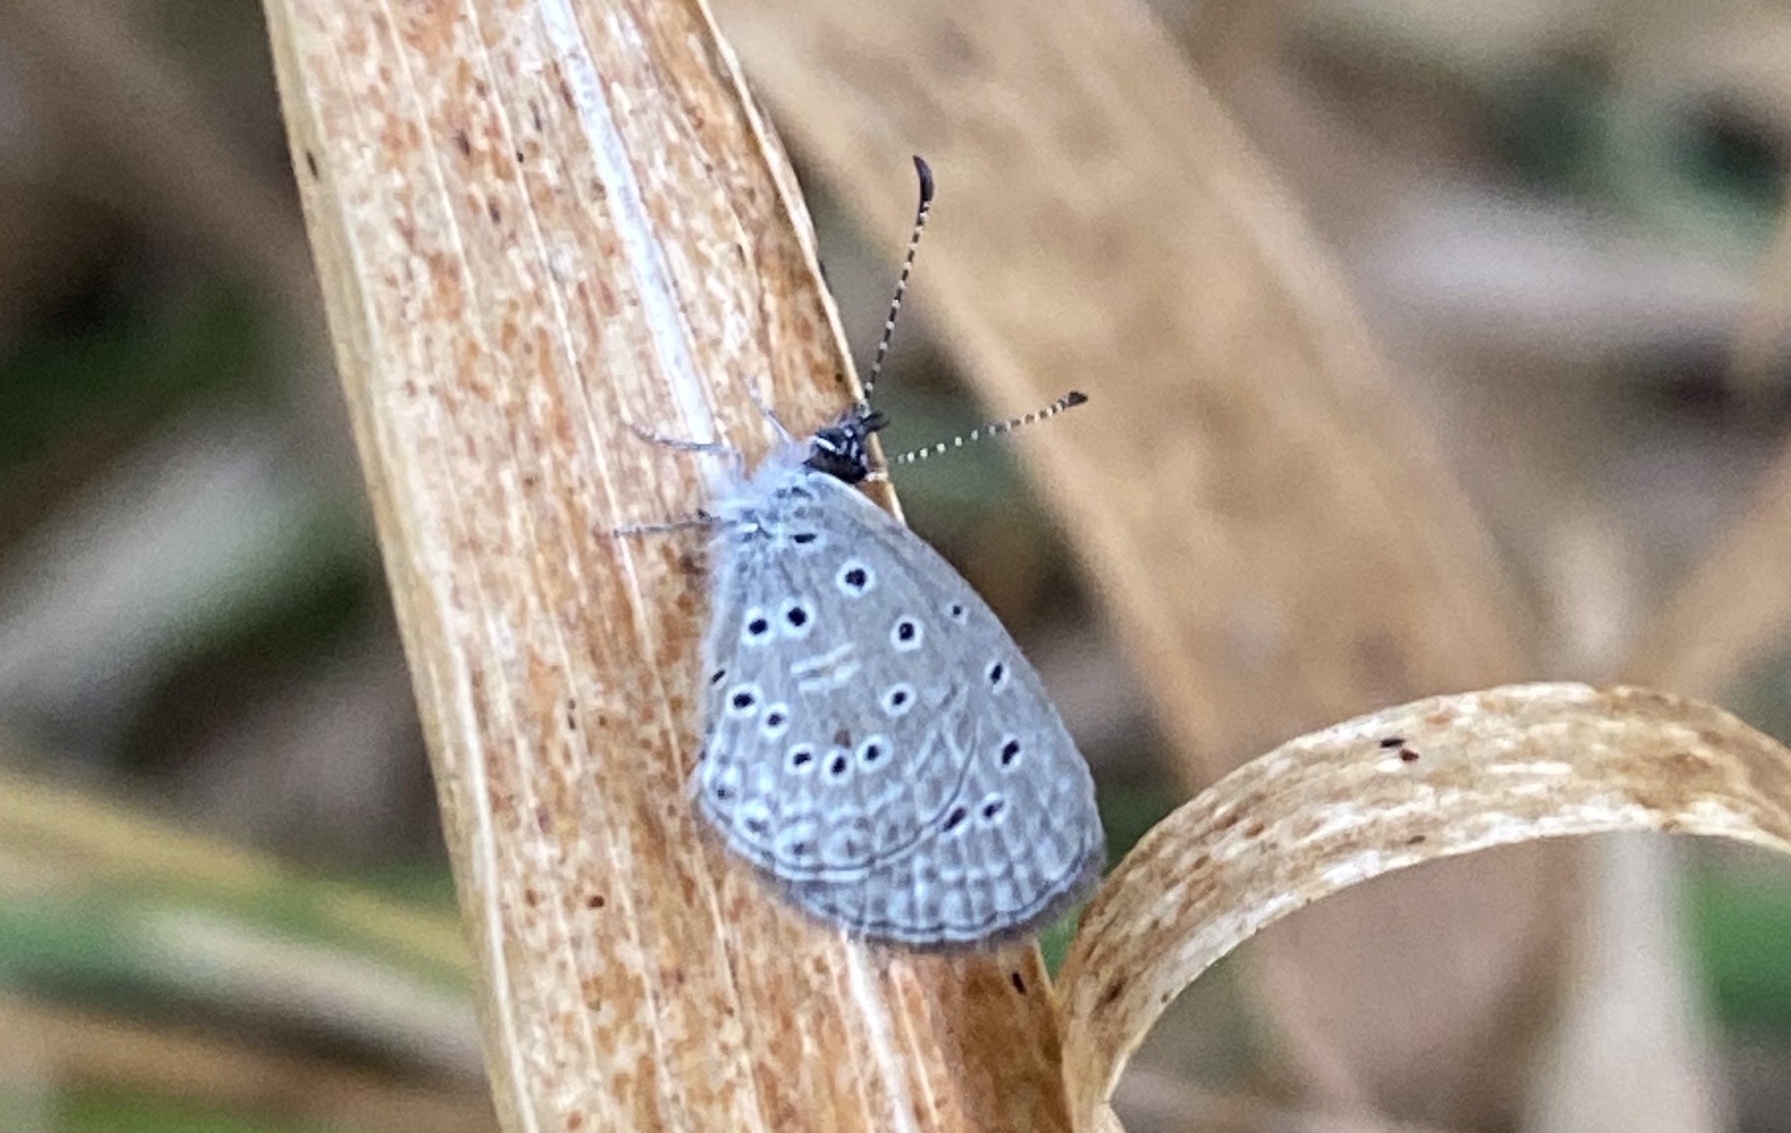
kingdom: Animalia
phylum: Arthropoda
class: Insecta
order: Lepidoptera
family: Lycaenidae
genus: Zizula
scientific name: Zizula hylax
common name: Gaika blue
